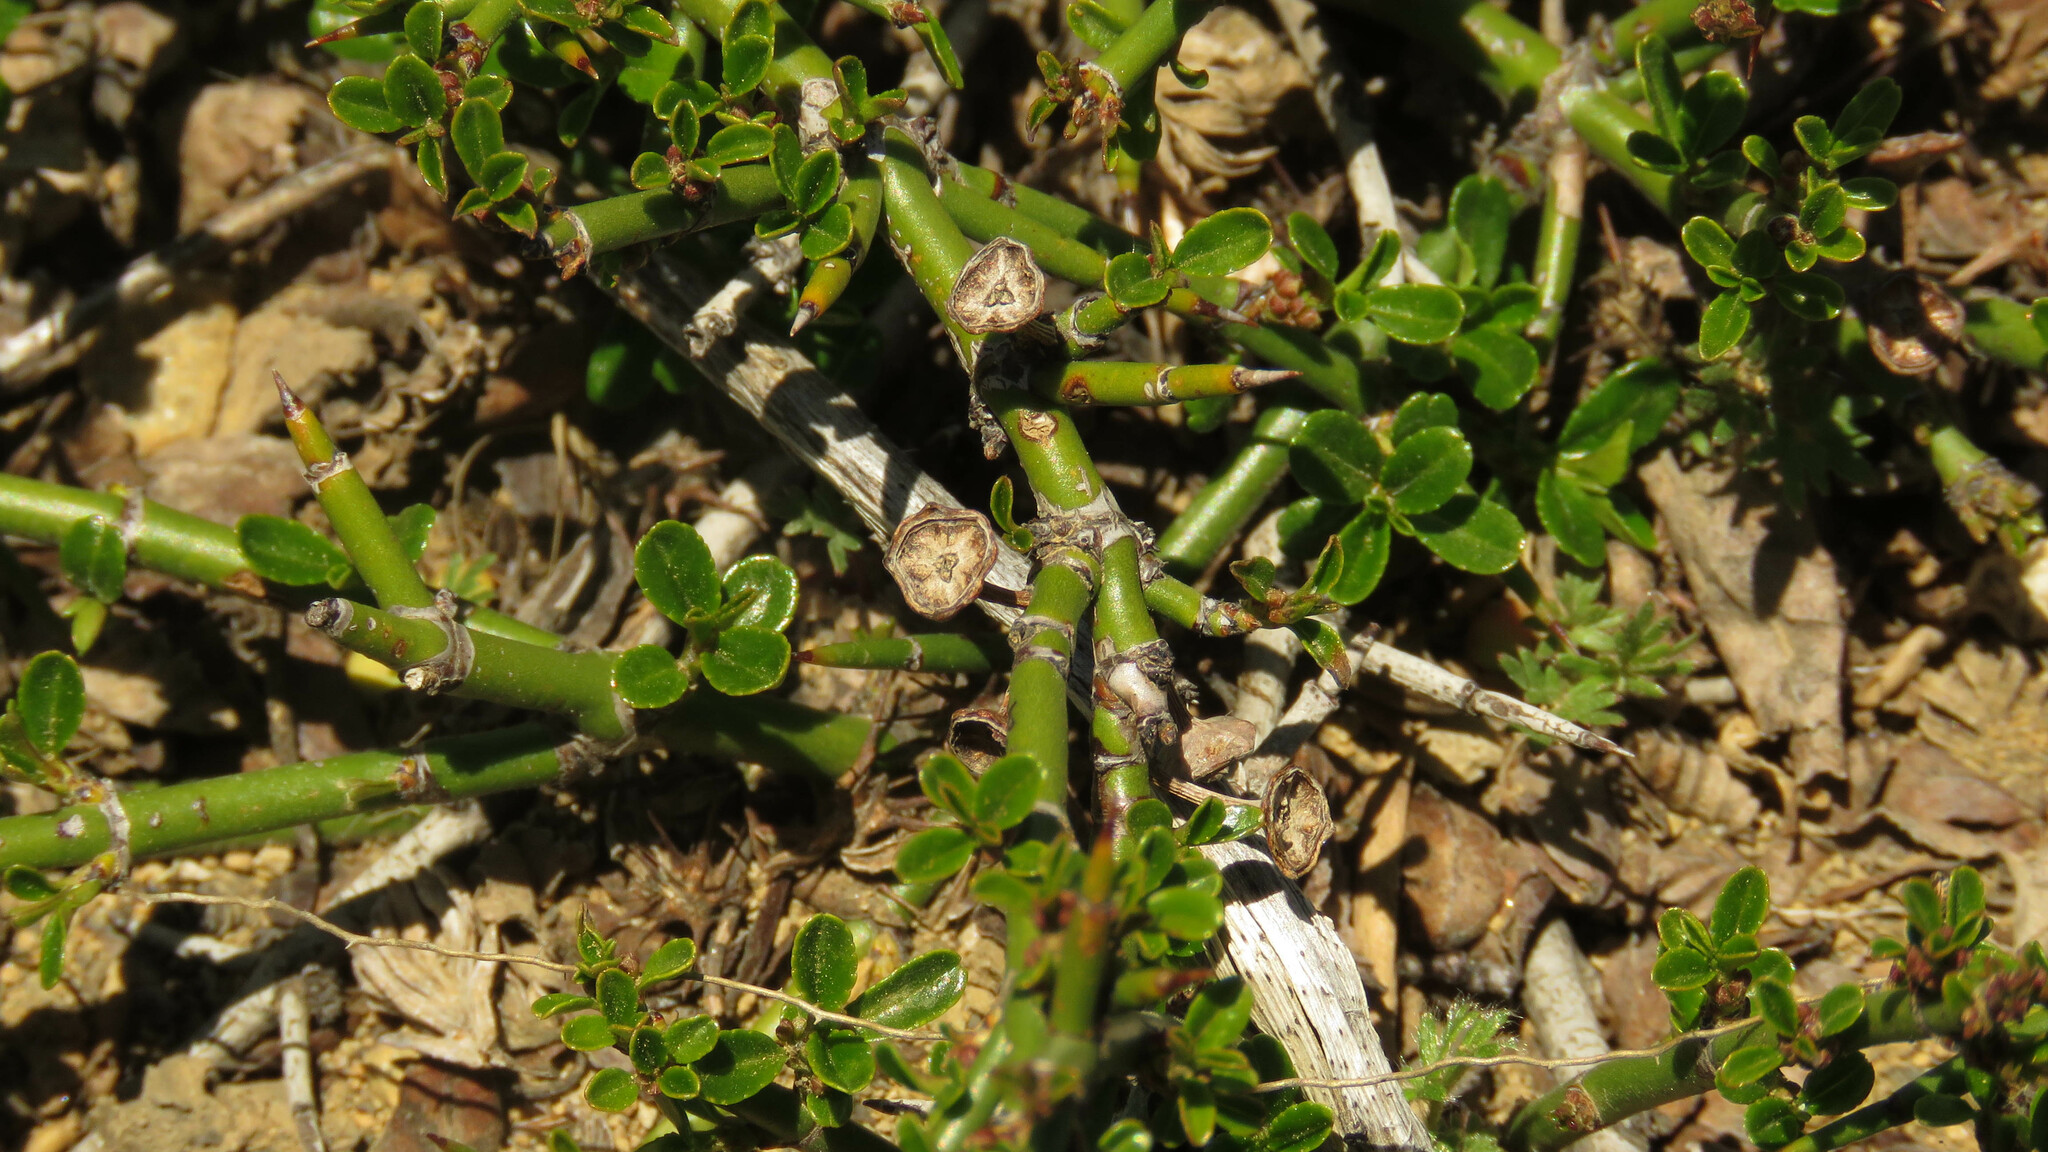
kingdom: Plantae
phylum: Tracheophyta
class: Magnoliopsida
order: Rosales
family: Rhamnaceae
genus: Discaria
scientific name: Discaria chacaye
